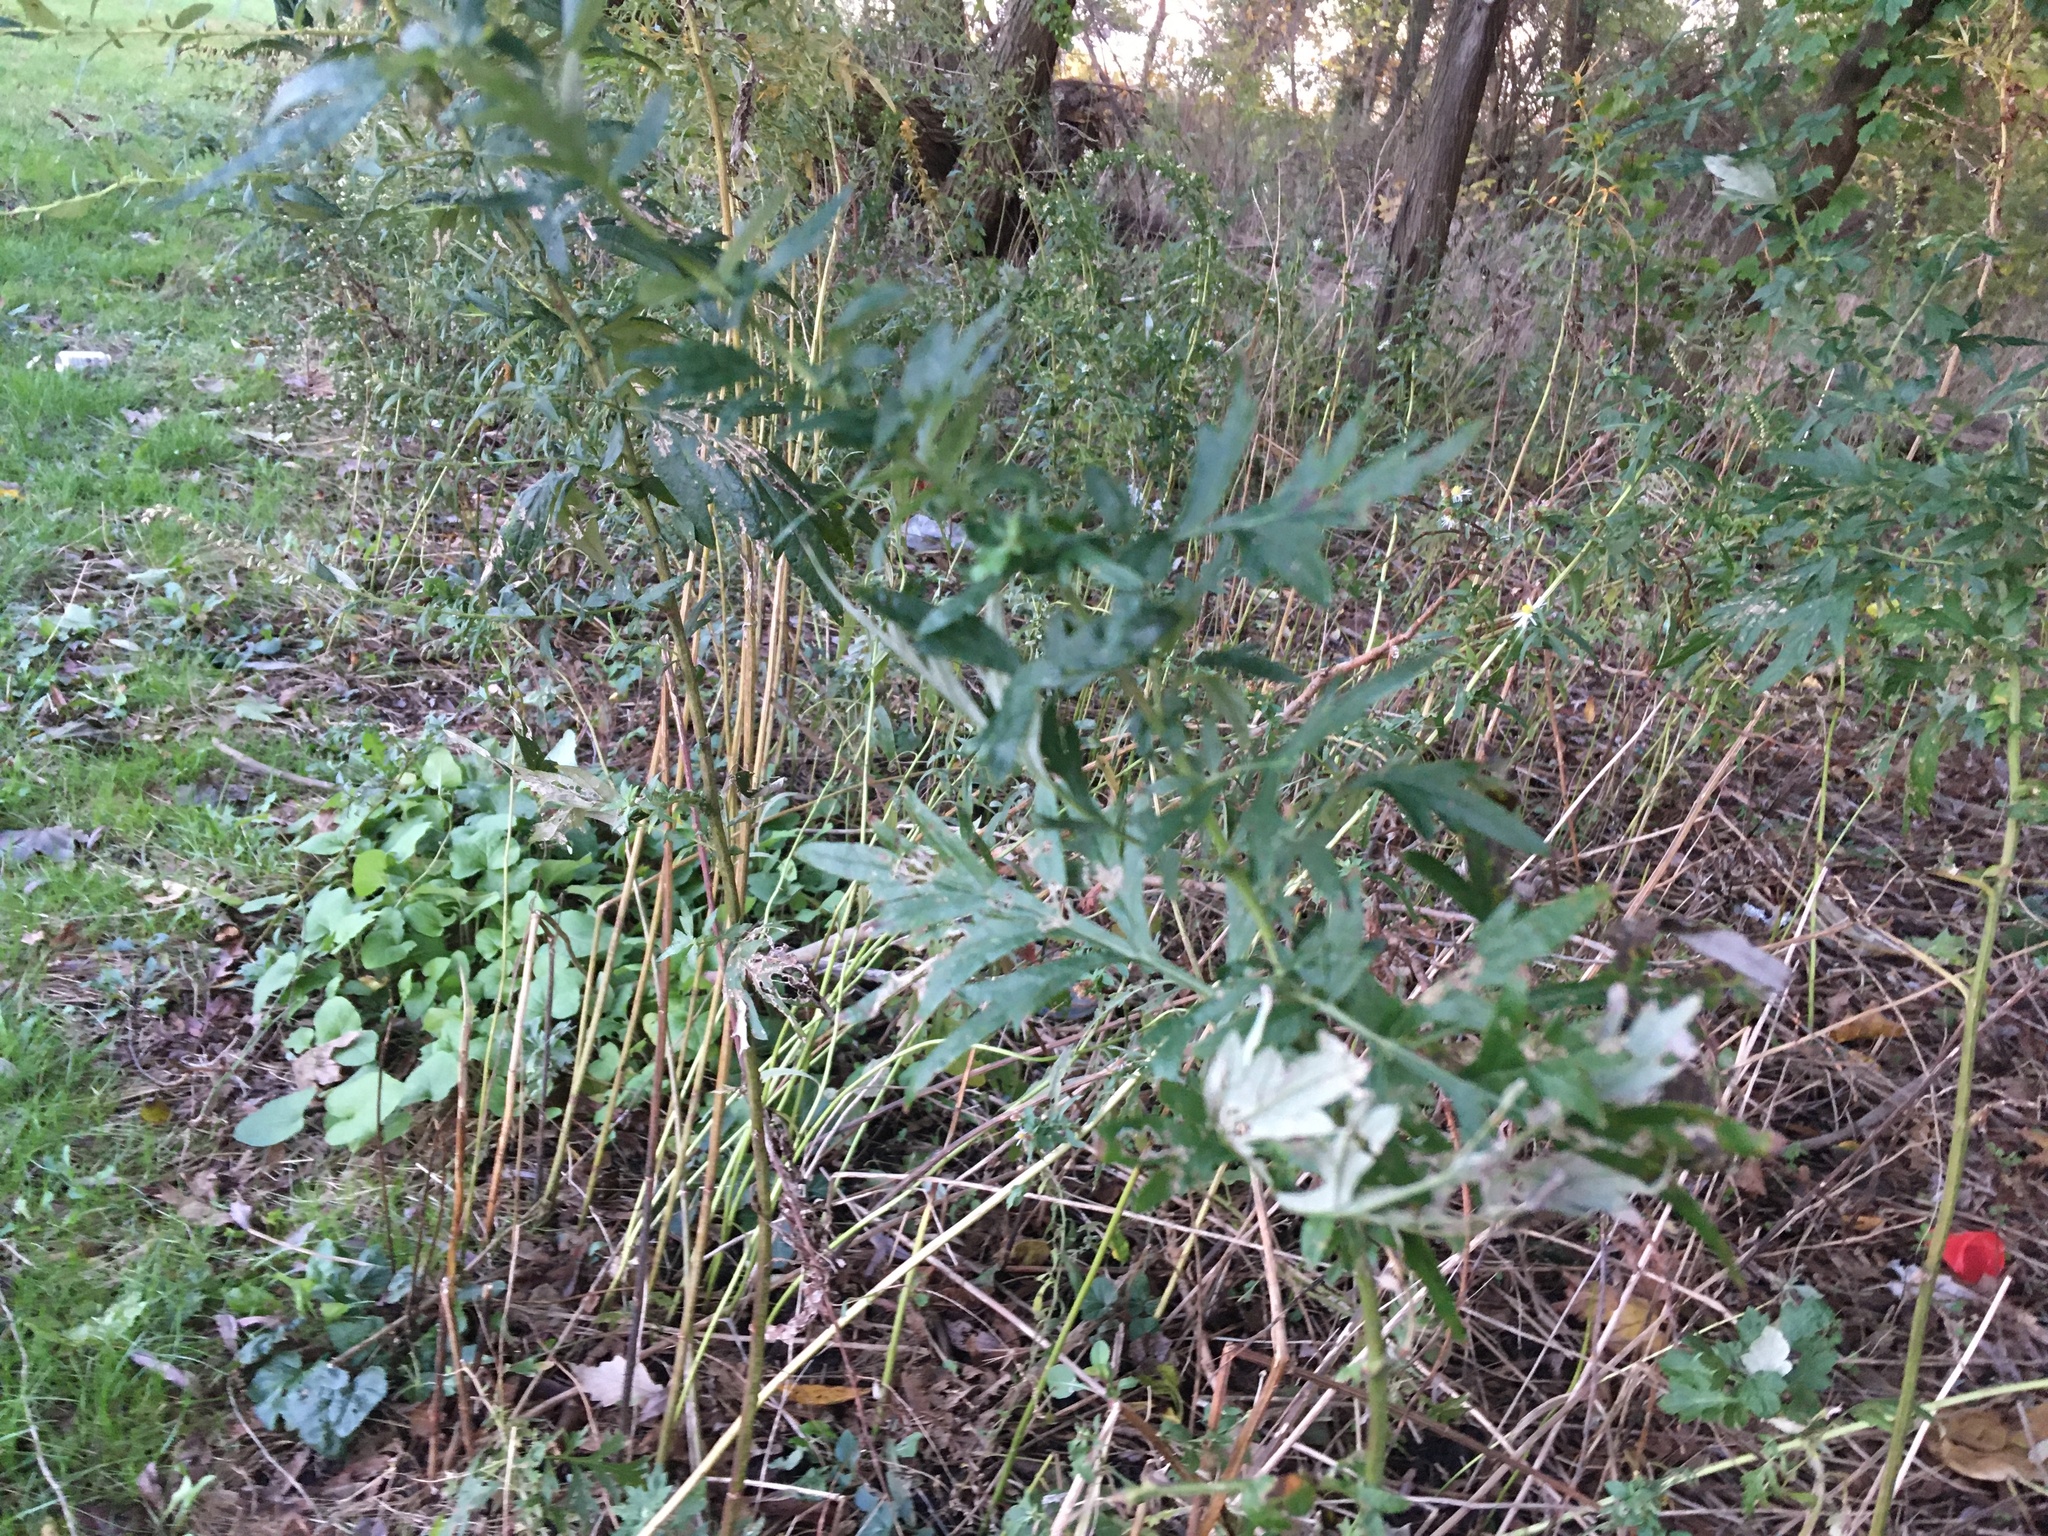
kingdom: Plantae
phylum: Tracheophyta
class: Magnoliopsida
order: Asterales
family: Asteraceae
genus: Artemisia
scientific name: Artemisia vulgaris
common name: Mugwort
